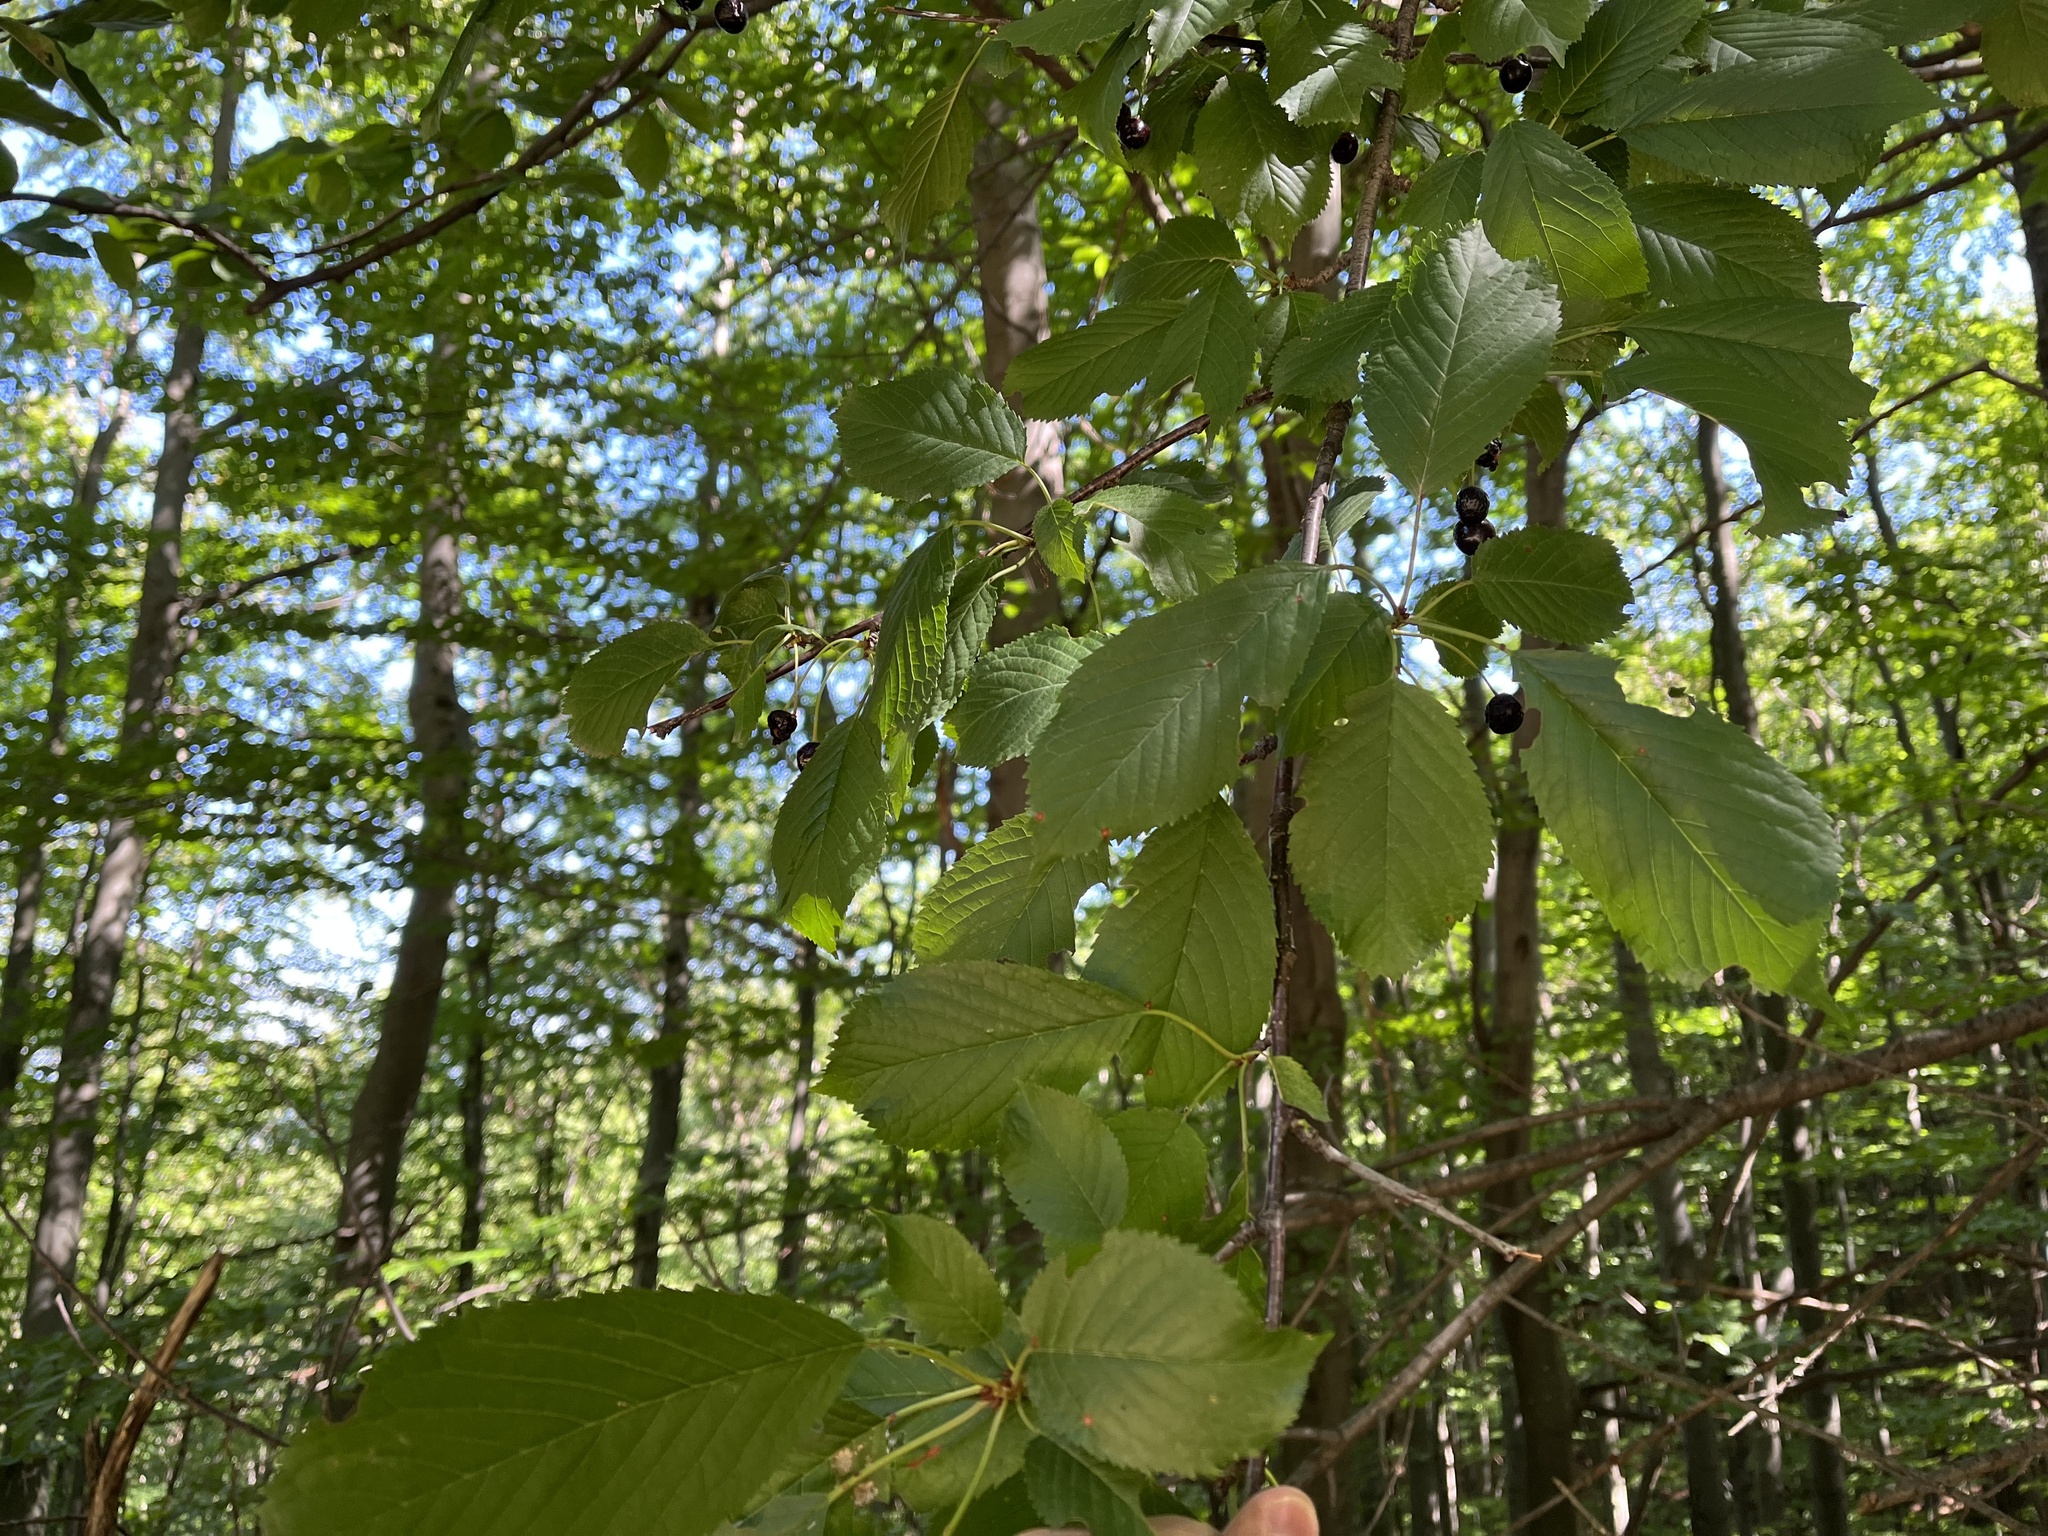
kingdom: Plantae
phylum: Tracheophyta
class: Magnoliopsida
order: Rosales
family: Rosaceae
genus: Prunus
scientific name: Prunus avium
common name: Sweet cherry
